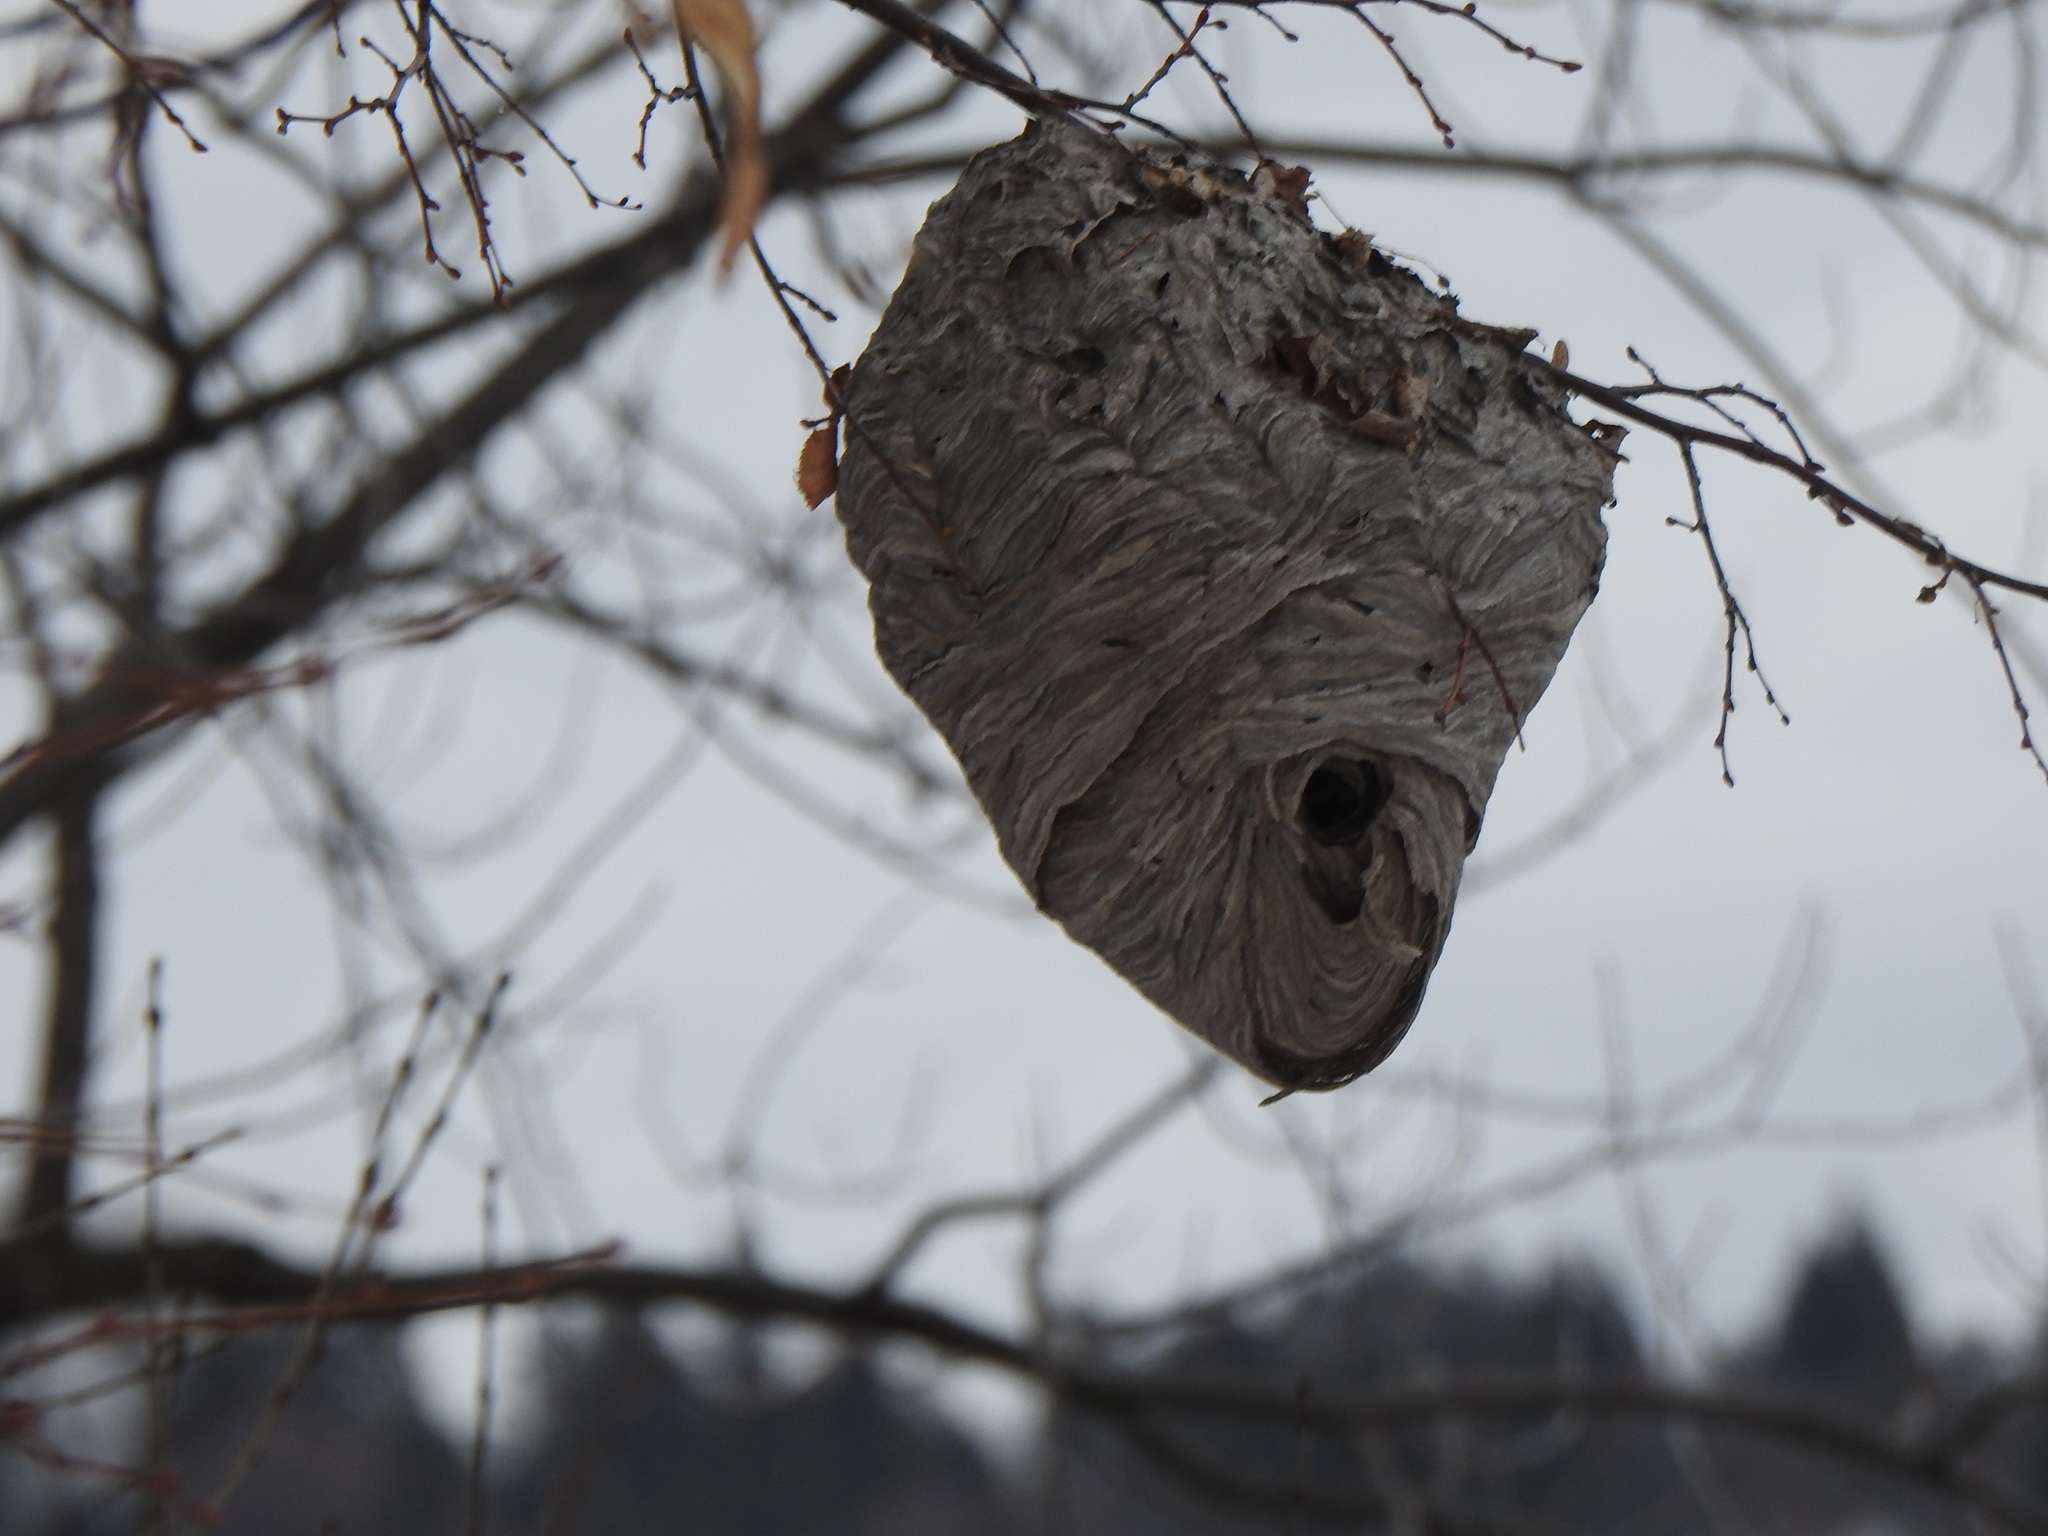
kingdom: Animalia
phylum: Arthropoda
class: Insecta
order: Hymenoptera
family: Vespidae
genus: Dolichovespula
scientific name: Dolichovespula maculata
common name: Bald-faced hornet
